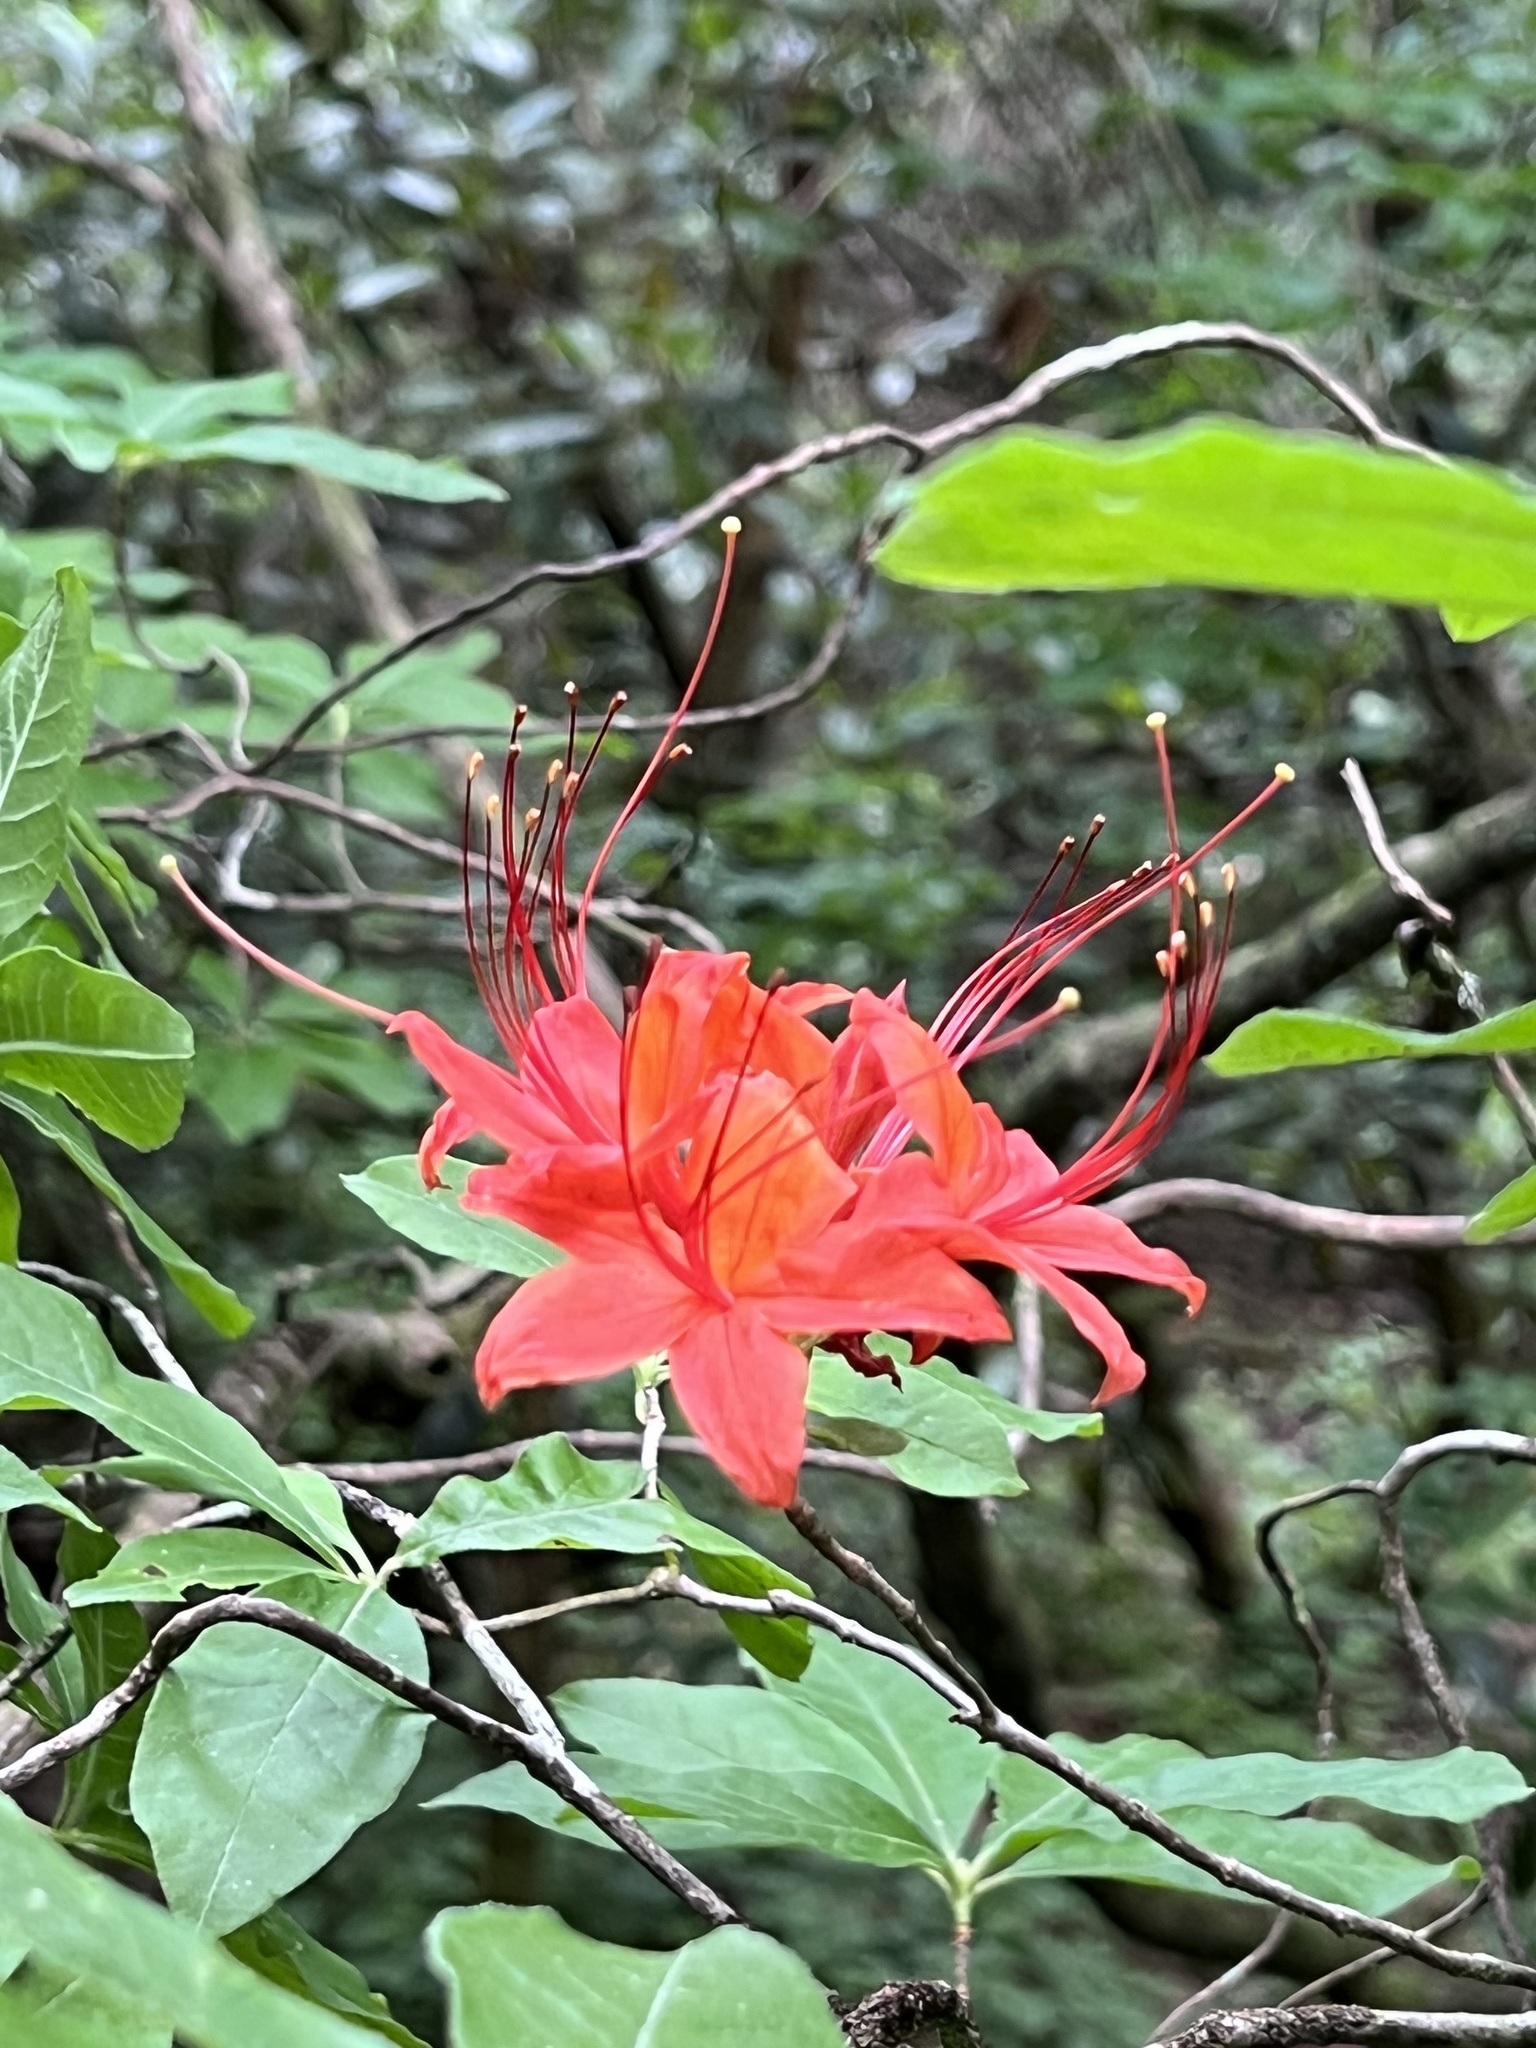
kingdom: Plantae
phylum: Tracheophyta
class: Magnoliopsida
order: Ericales
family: Ericaceae
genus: Rhododendron
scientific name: Rhododendron calendulaceum
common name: Flame azalea
